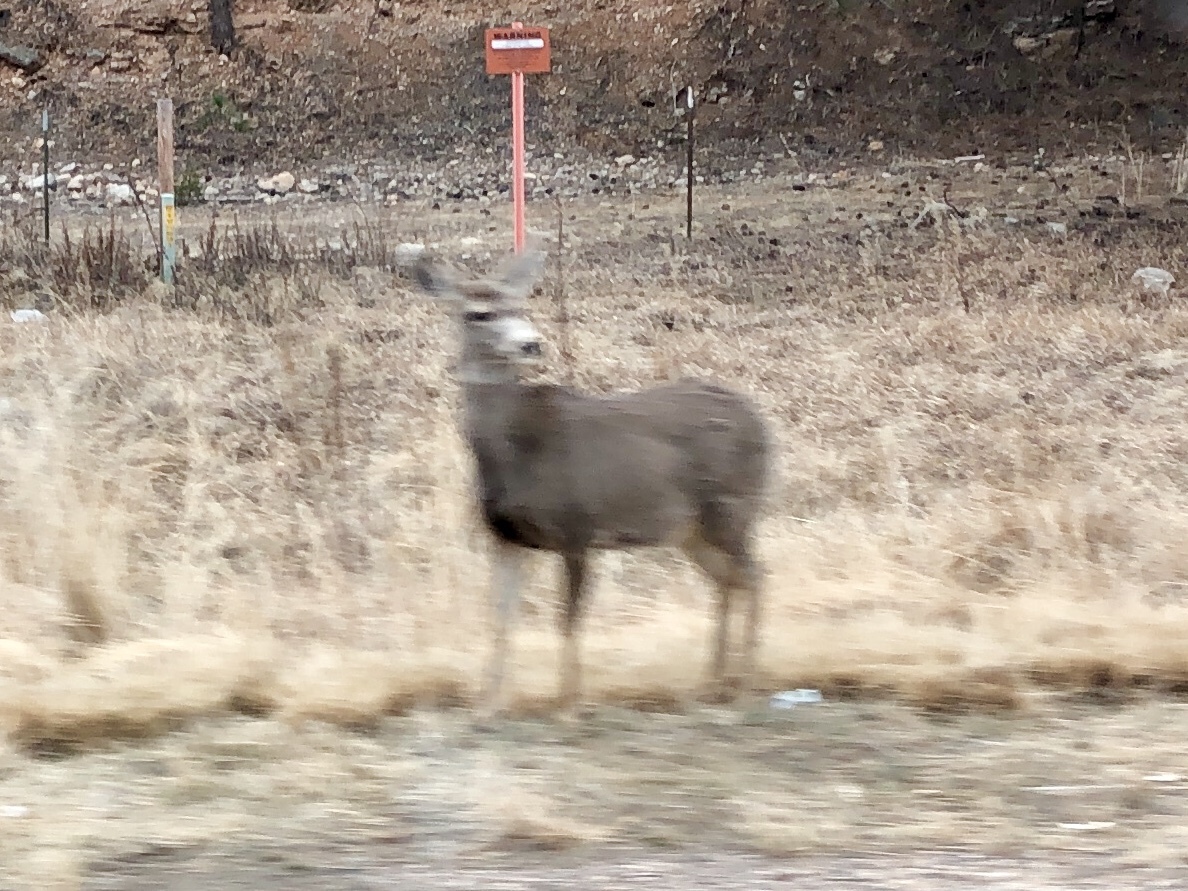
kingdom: Animalia
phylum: Chordata
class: Mammalia
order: Artiodactyla
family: Cervidae
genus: Odocoileus
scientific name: Odocoileus hemionus
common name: Mule deer
